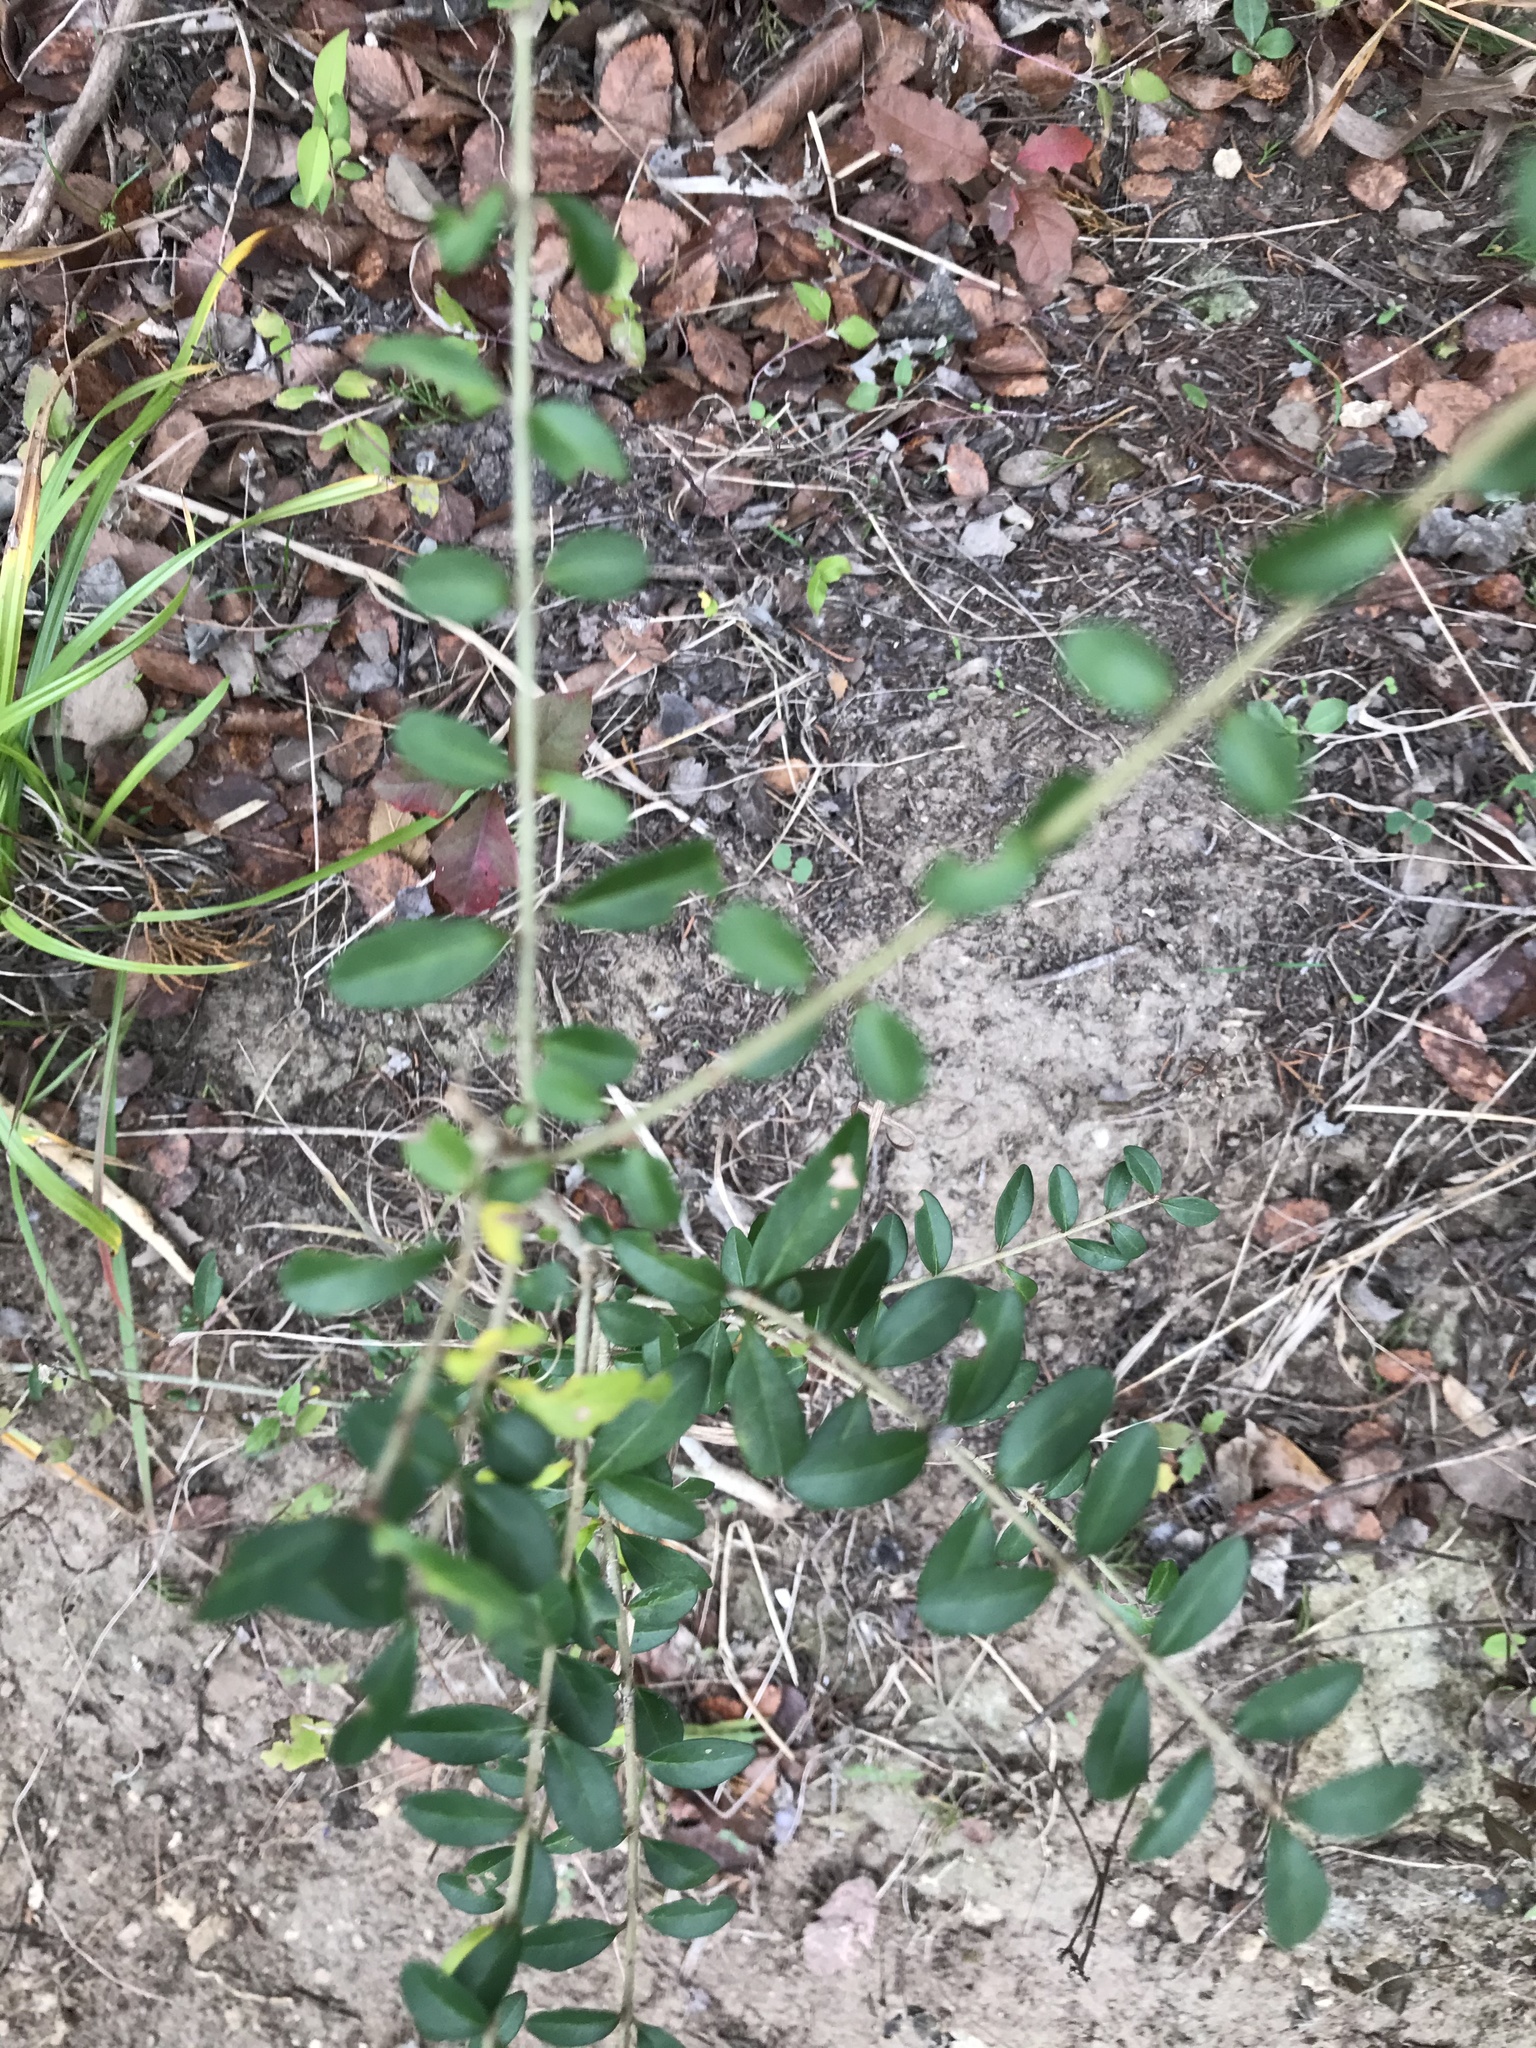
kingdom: Plantae
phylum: Tracheophyta
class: Magnoliopsida
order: Lamiales
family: Oleaceae
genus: Ligustrum
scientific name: Ligustrum quihoui
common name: Waxyleaf privet
